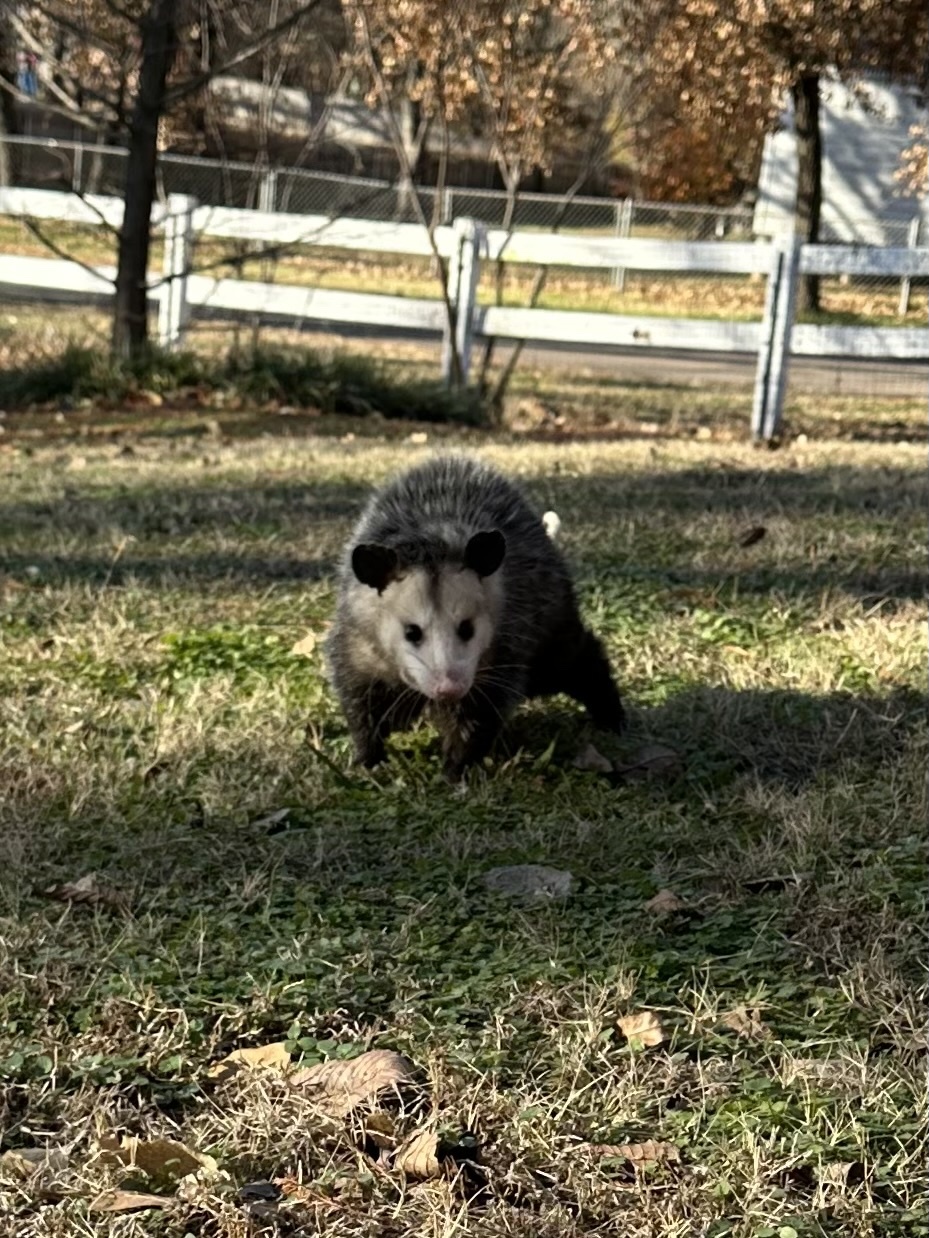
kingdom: Animalia
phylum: Chordata
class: Mammalia
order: Didelphimorphia
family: Didelphidae
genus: Didelphis
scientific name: Didelphis virginiana
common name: Virginia opossum
